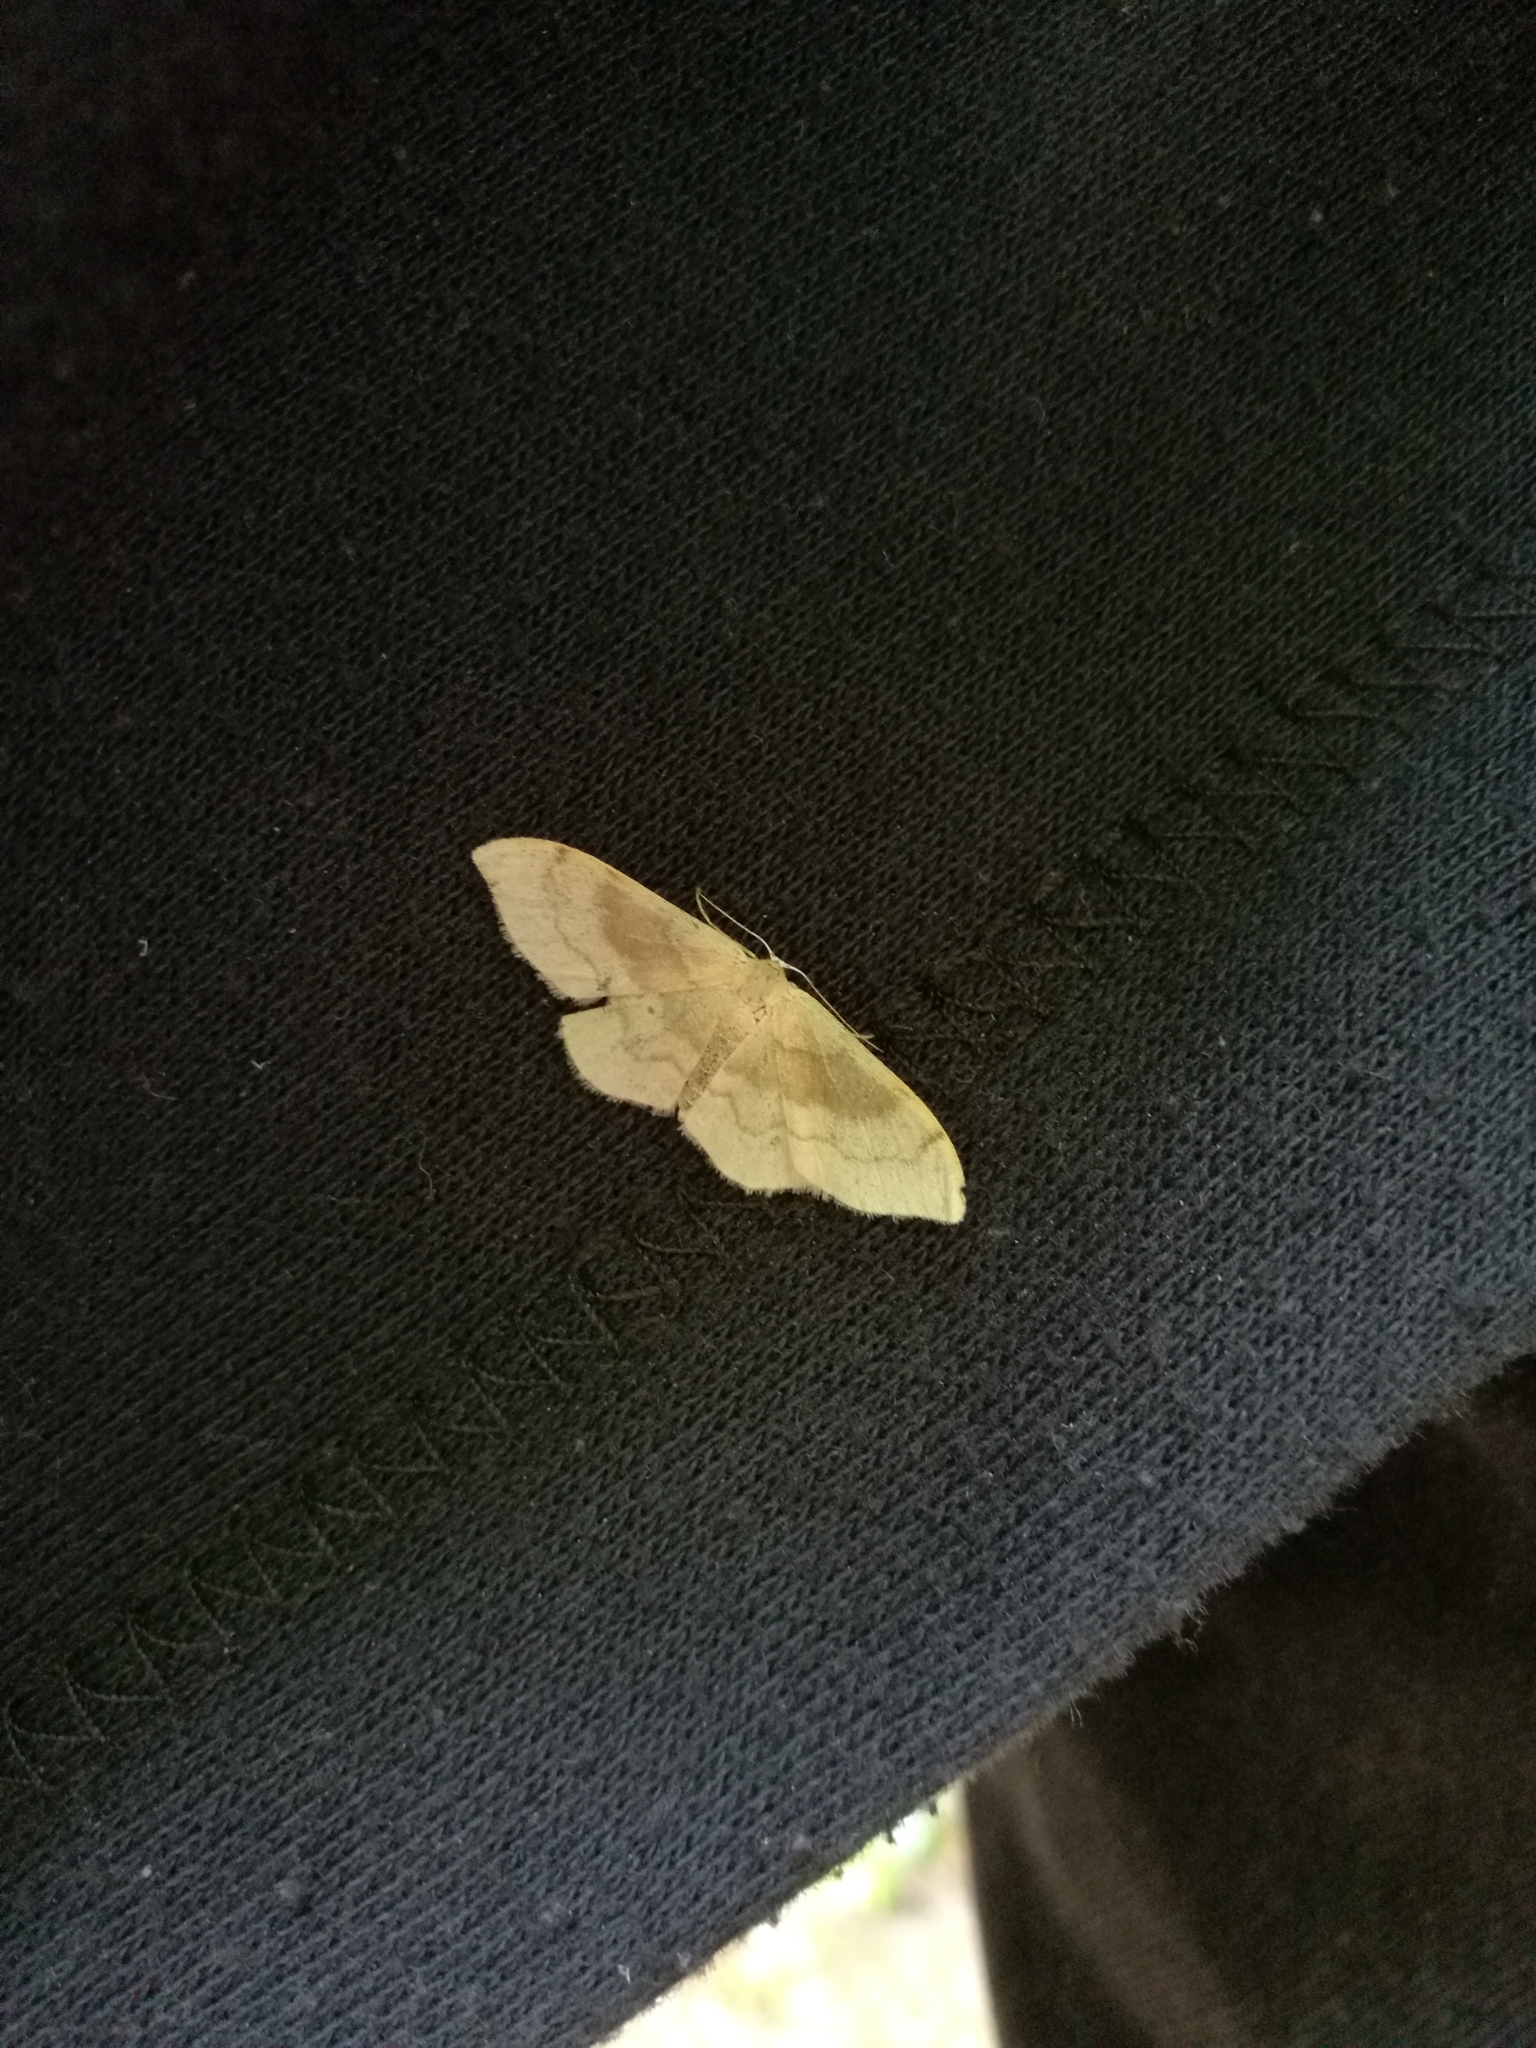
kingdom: Animalia
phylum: Arthropoda
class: Insecta
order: Lepidoptera
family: Geometridae
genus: Idaea
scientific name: Idaea degeneraria
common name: Portland ribbon wave
